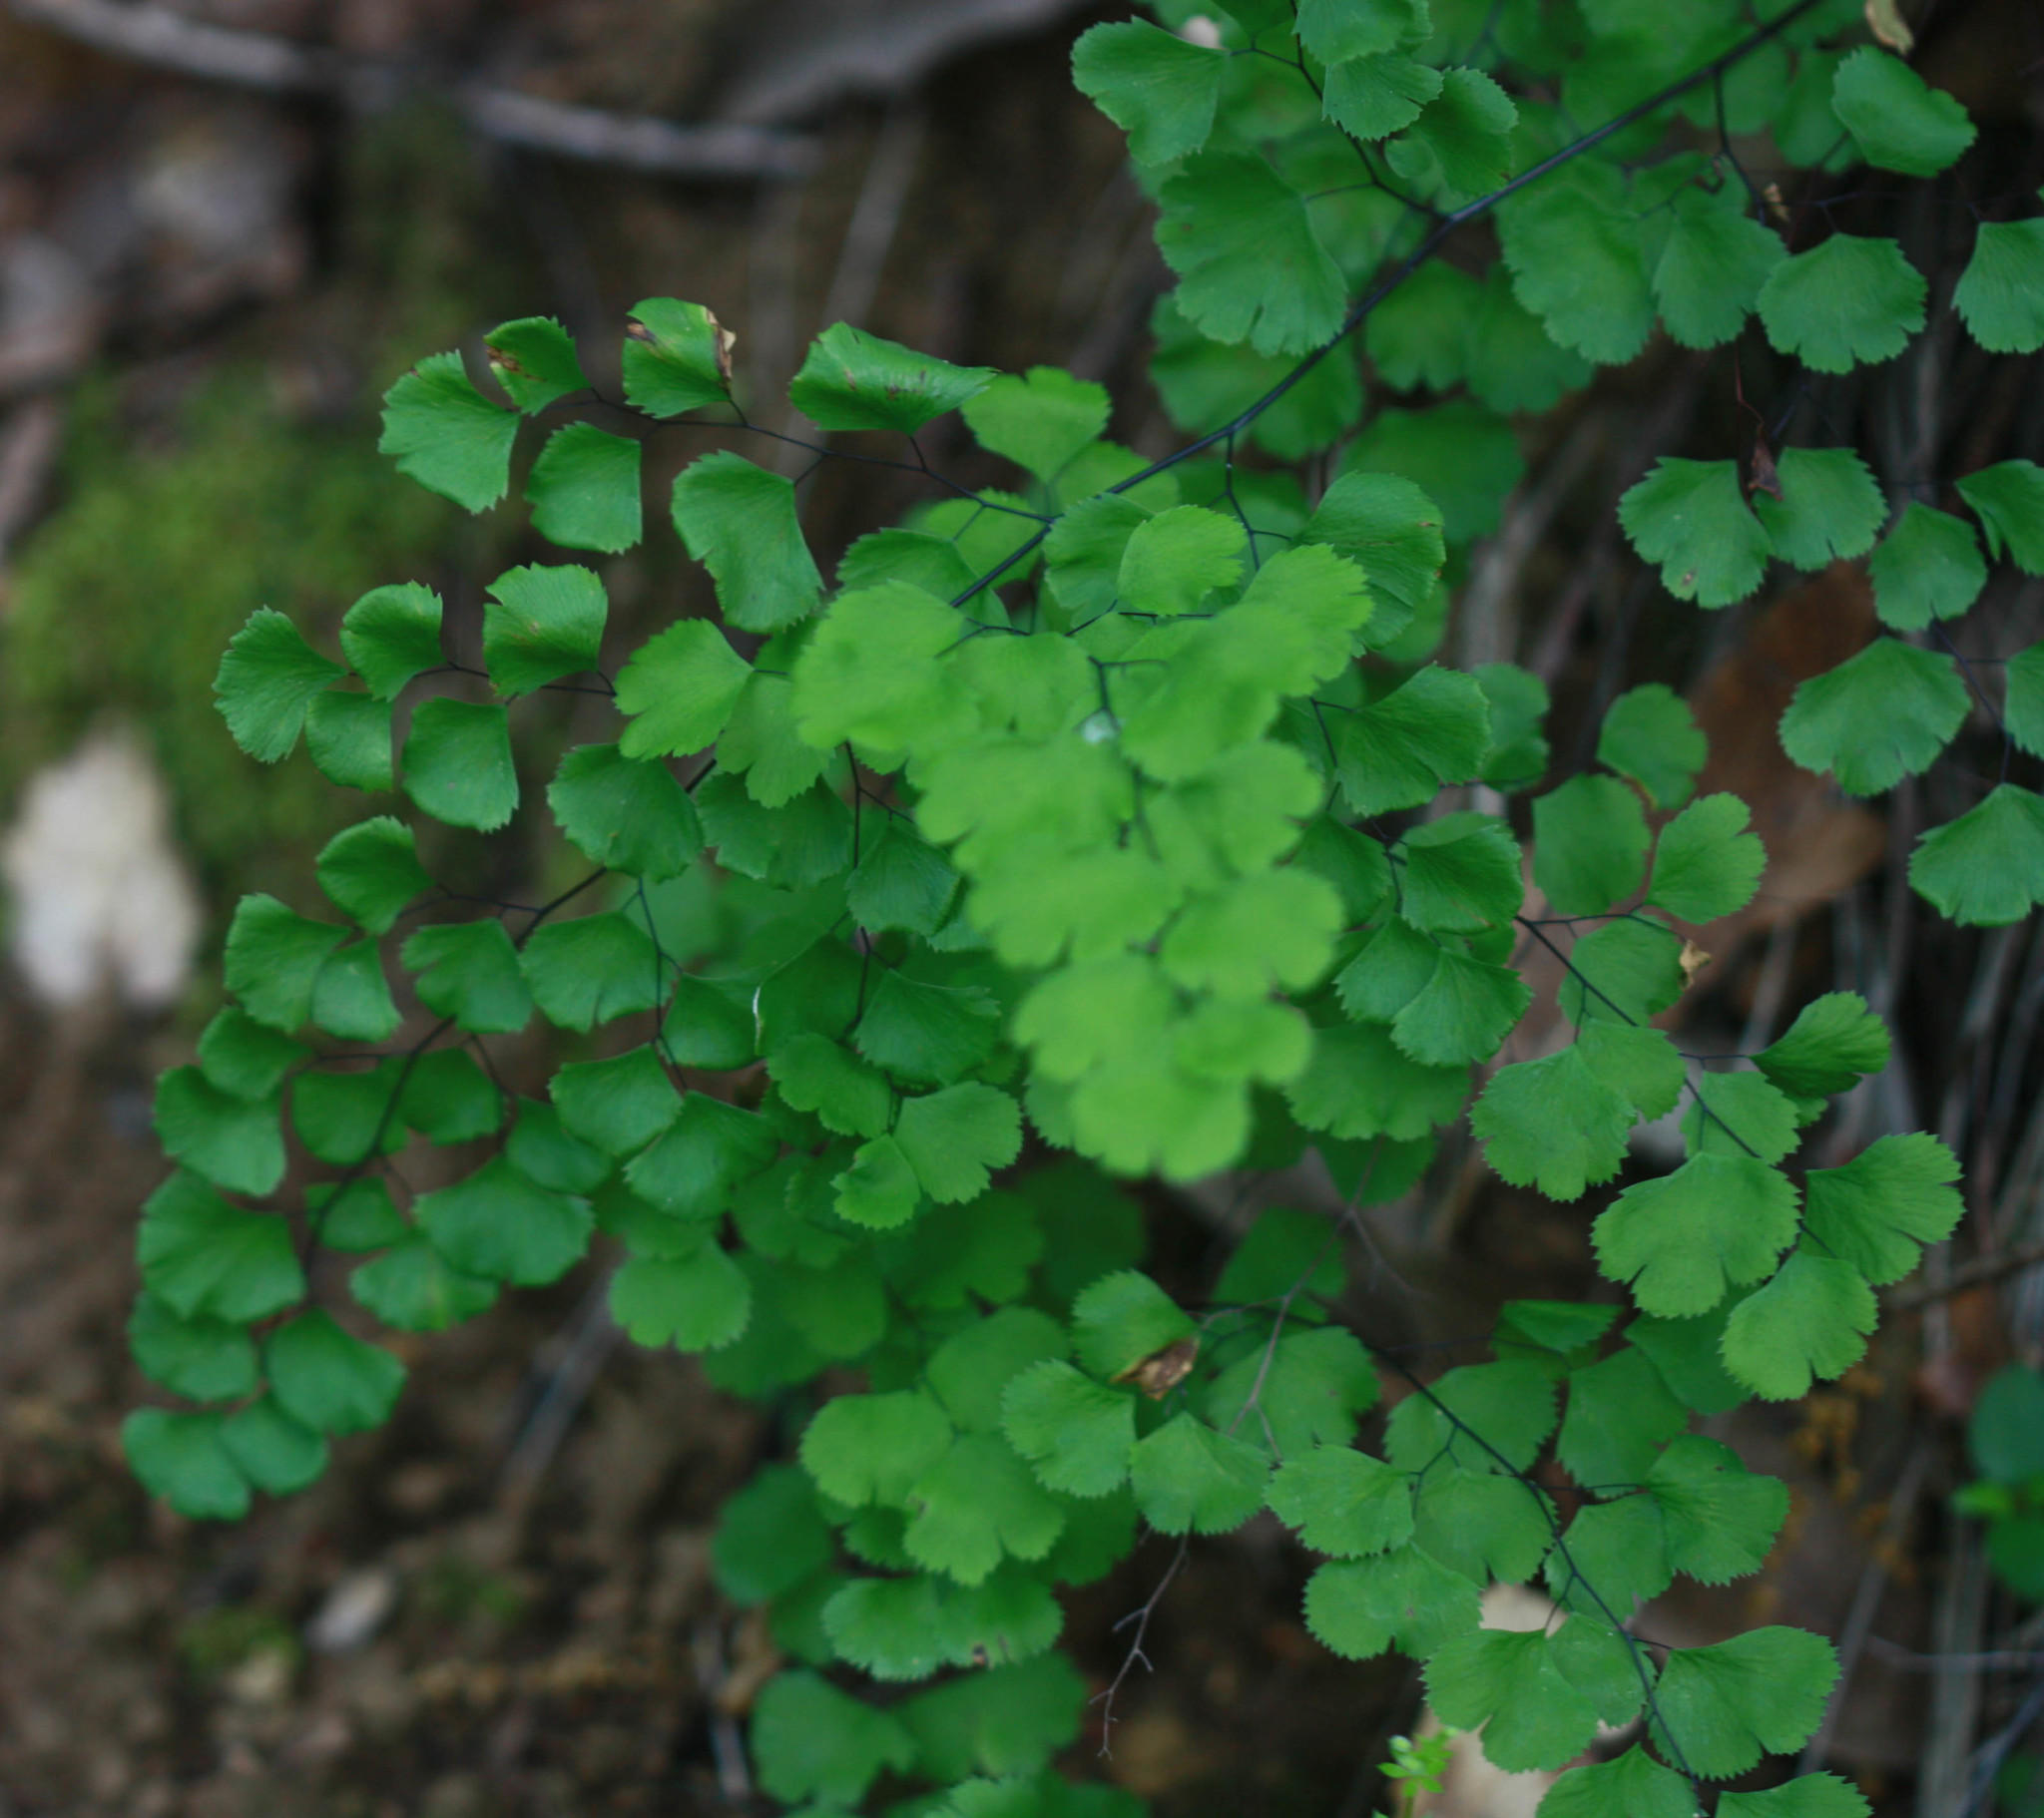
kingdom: Plantae
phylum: Tracheophyta
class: Polypodiopsida
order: Polypodiales
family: Pteridaceae
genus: Adiantum
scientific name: Adiantum jordanii
